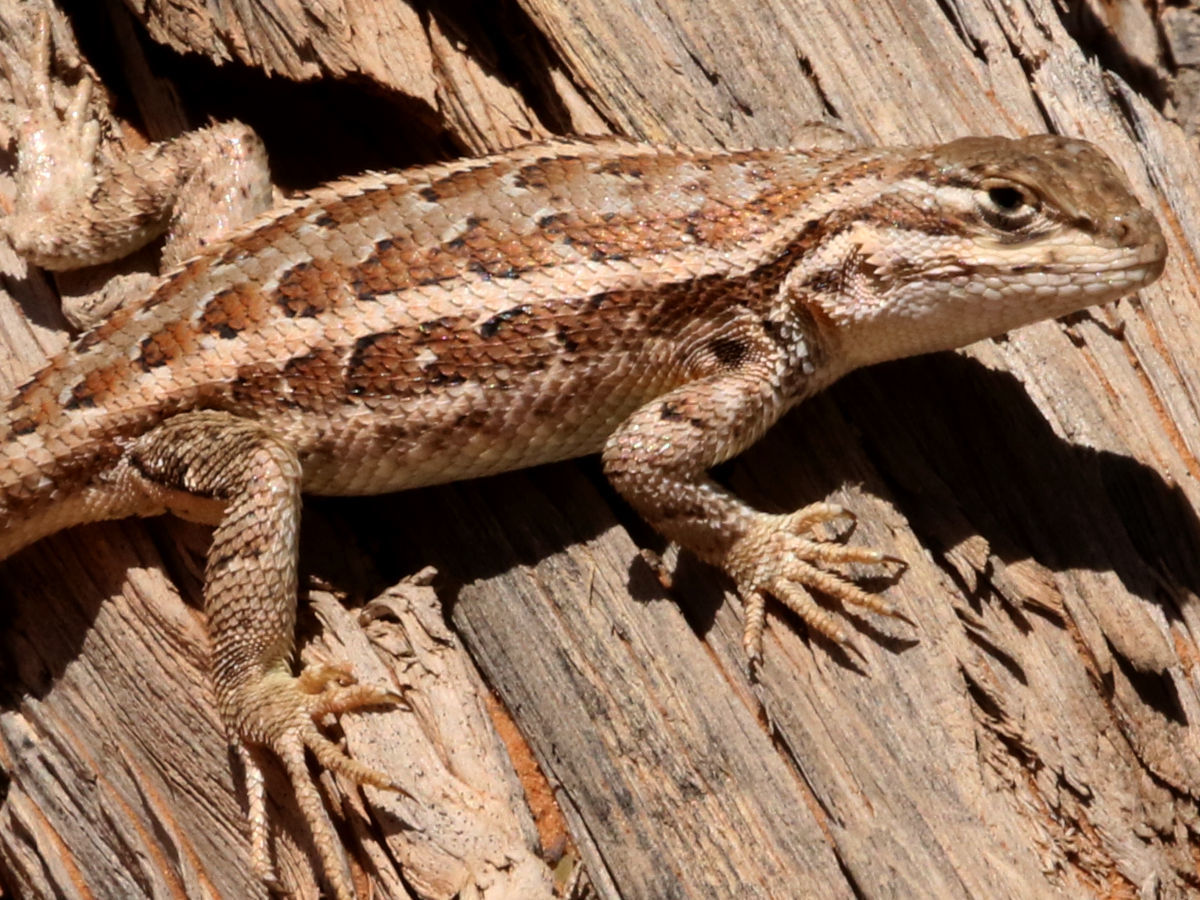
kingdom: Animalia
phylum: Chordata
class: Squamata
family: Phrynosomatidae
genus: Sceloporus
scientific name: Sceloporus graciosus
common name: Sagebrush lizard
